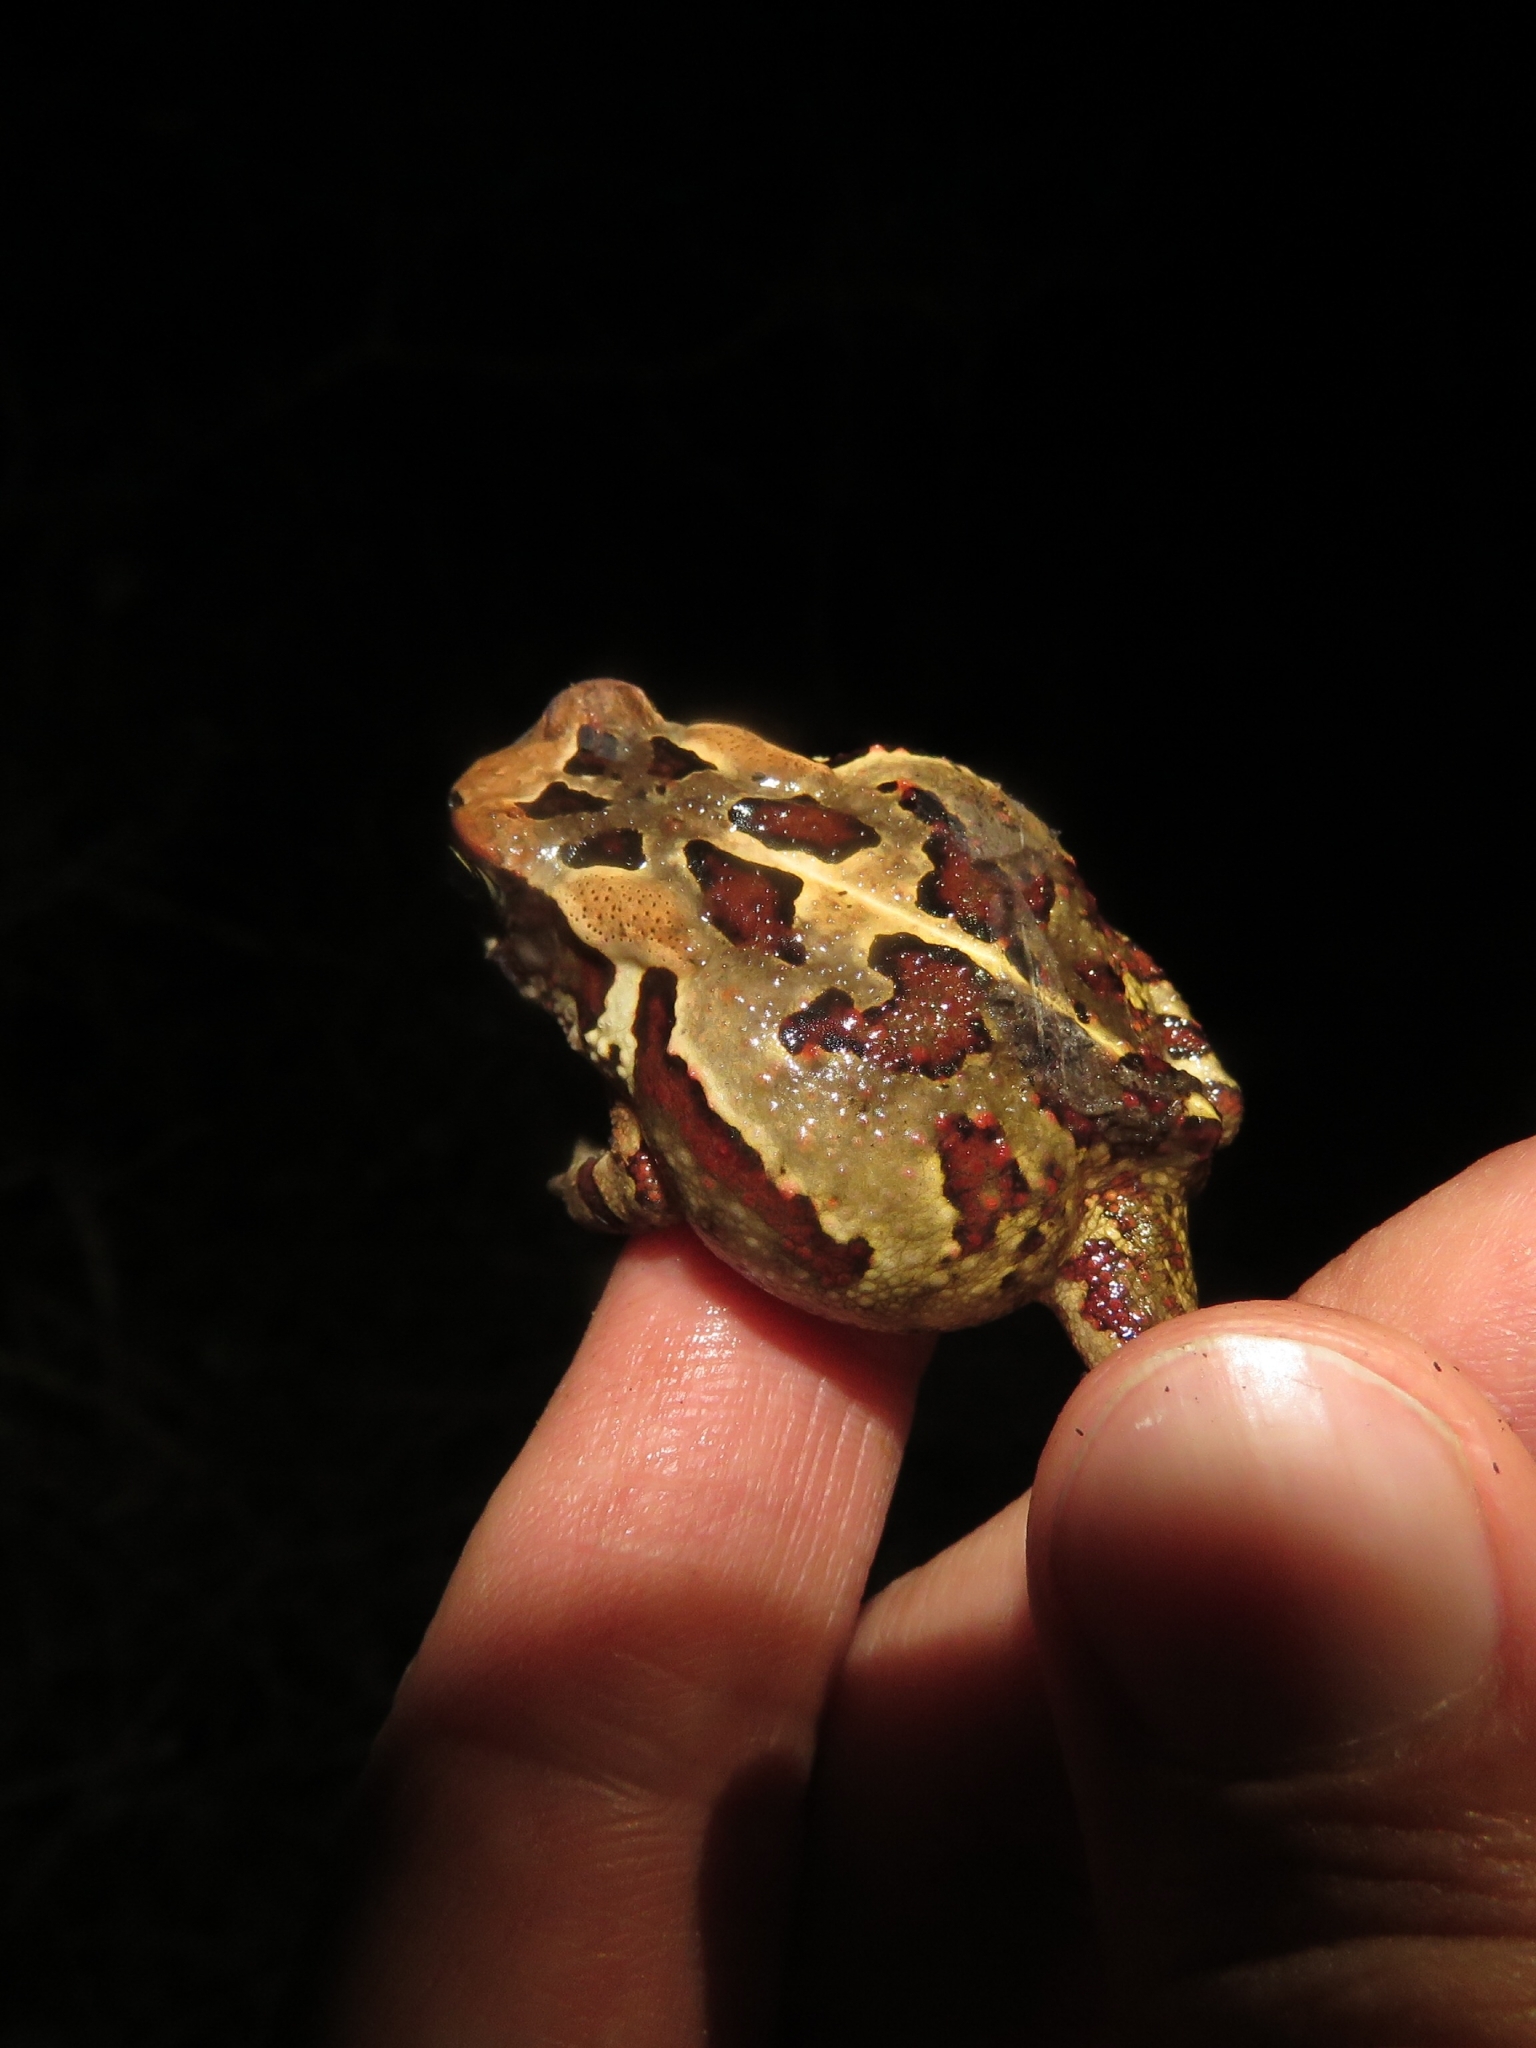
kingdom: Animalia
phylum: Chordata
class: Amphibia
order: Anura
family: Bufonidae
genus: Sclerophrys
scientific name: Sclerophrys pardalis
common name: Eastern leopard toad
